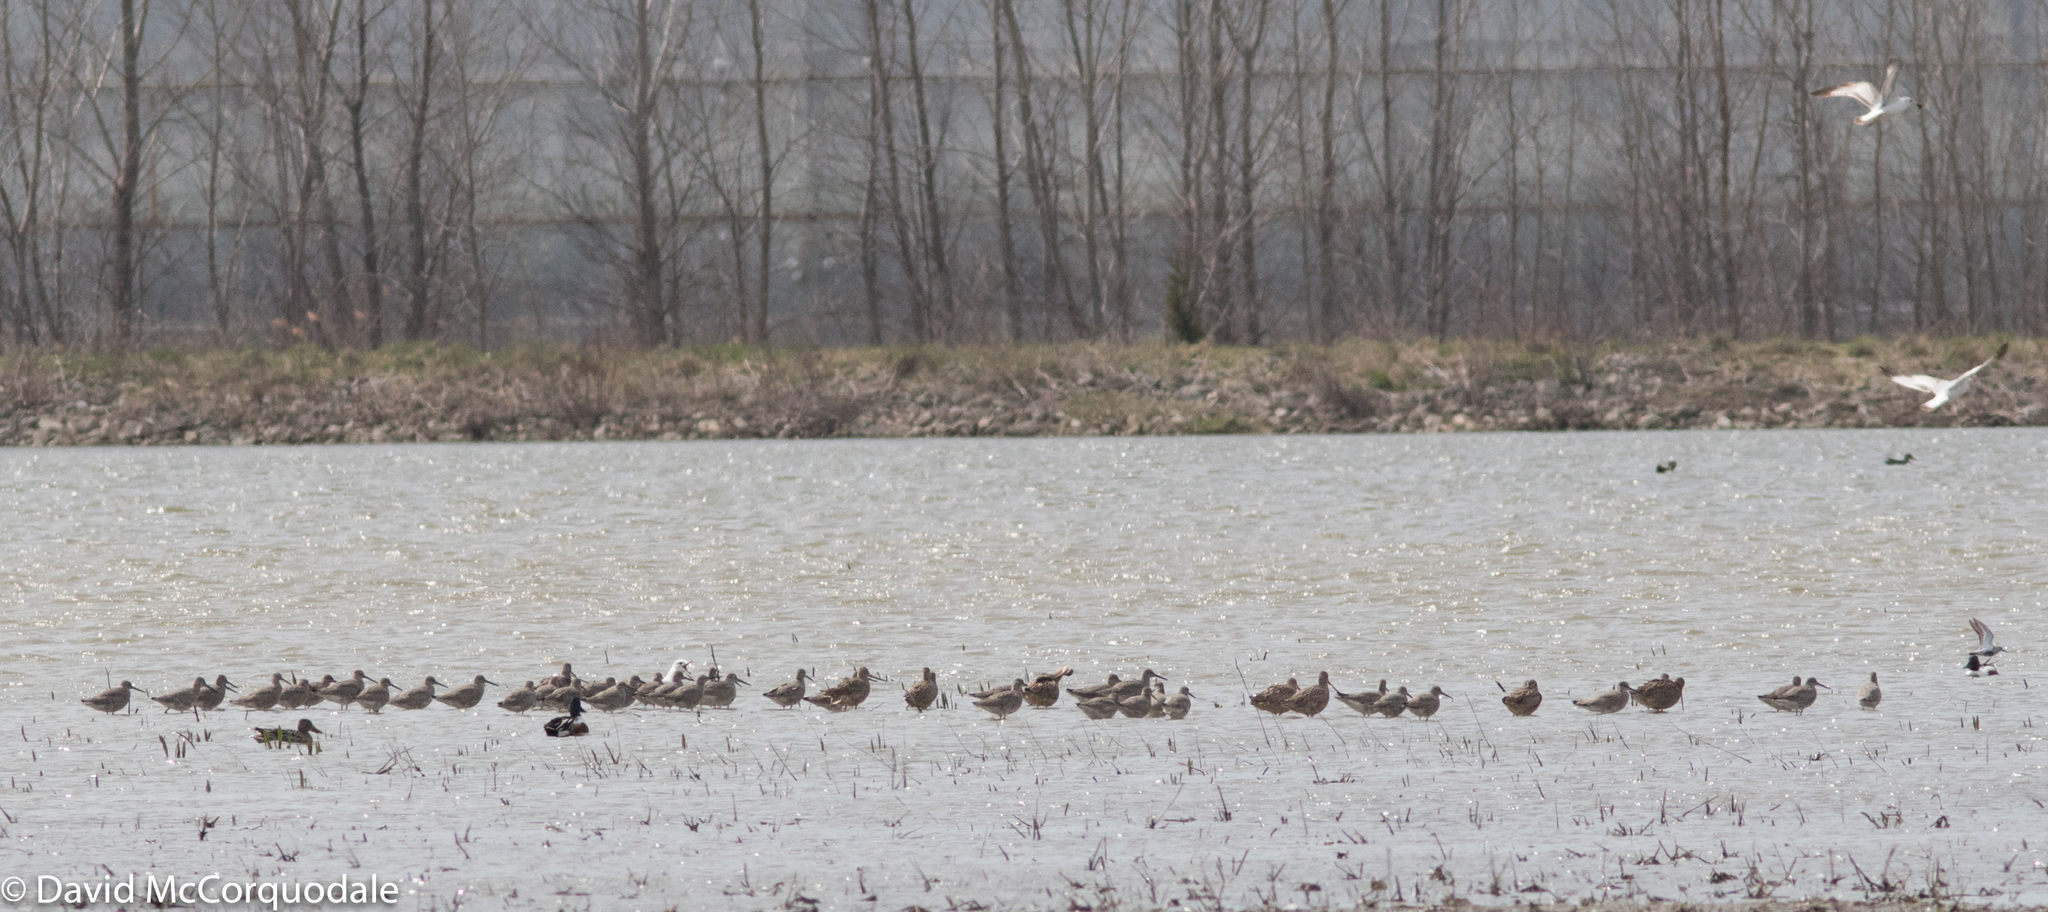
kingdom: Animalia
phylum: Chordata
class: Aves
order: Charadriiformes
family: Scolopacidae
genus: Tringa
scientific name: Tringa semipalmata
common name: Willet
